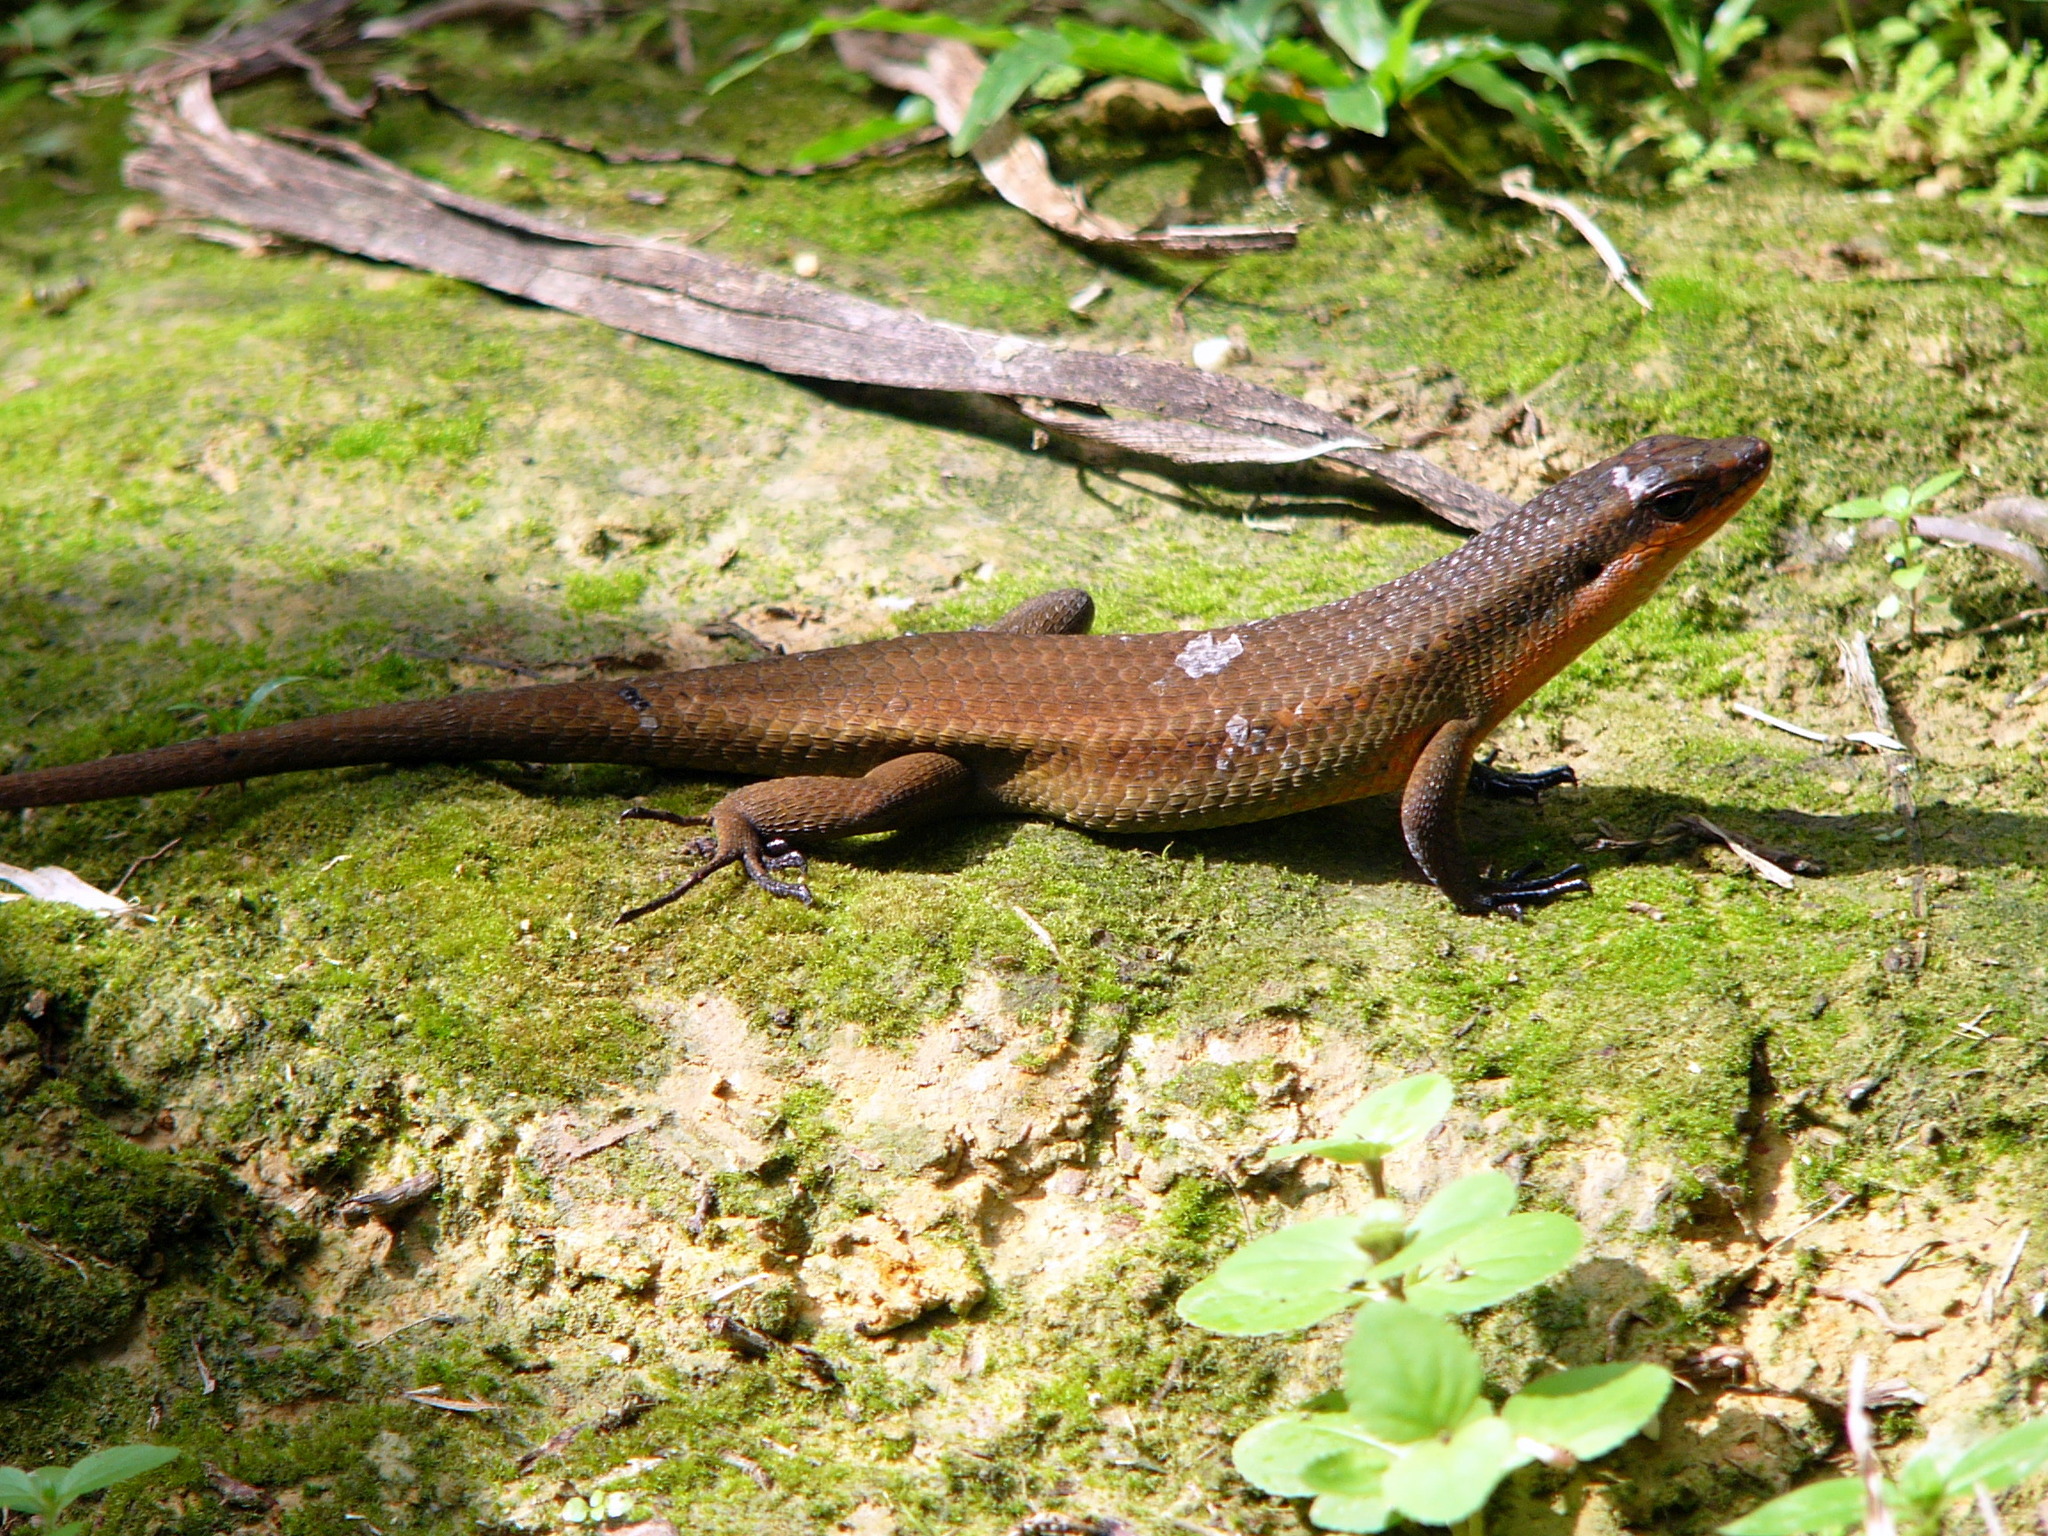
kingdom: Animalia
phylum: Chordata
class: Squamata
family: Scincidae
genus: Eutropis
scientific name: Eutropis lewisi
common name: Lewis’ mabuya
